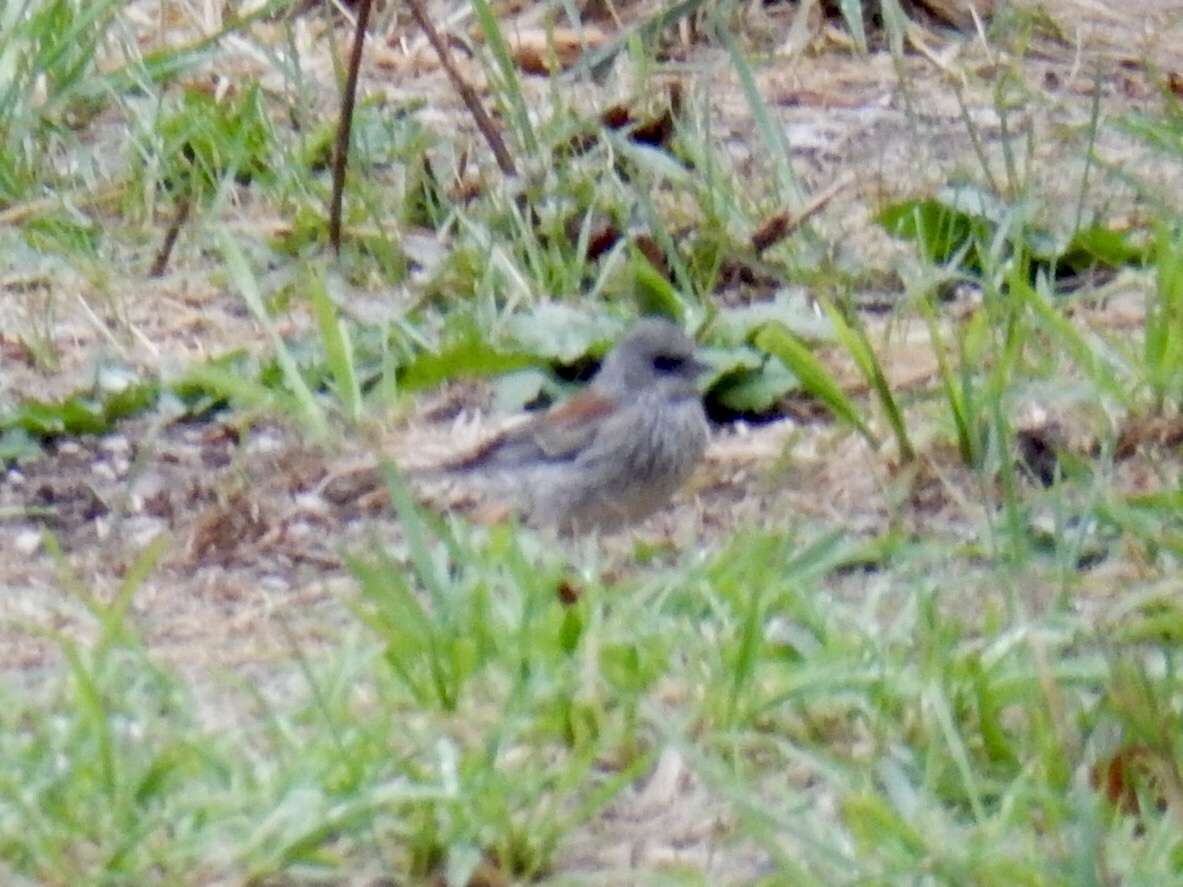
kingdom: Animalia
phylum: Chordata
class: Aves
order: Passeriformes
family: Passerellidae
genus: Junco
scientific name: Junco hyemalis
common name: Dark-eyed junco
